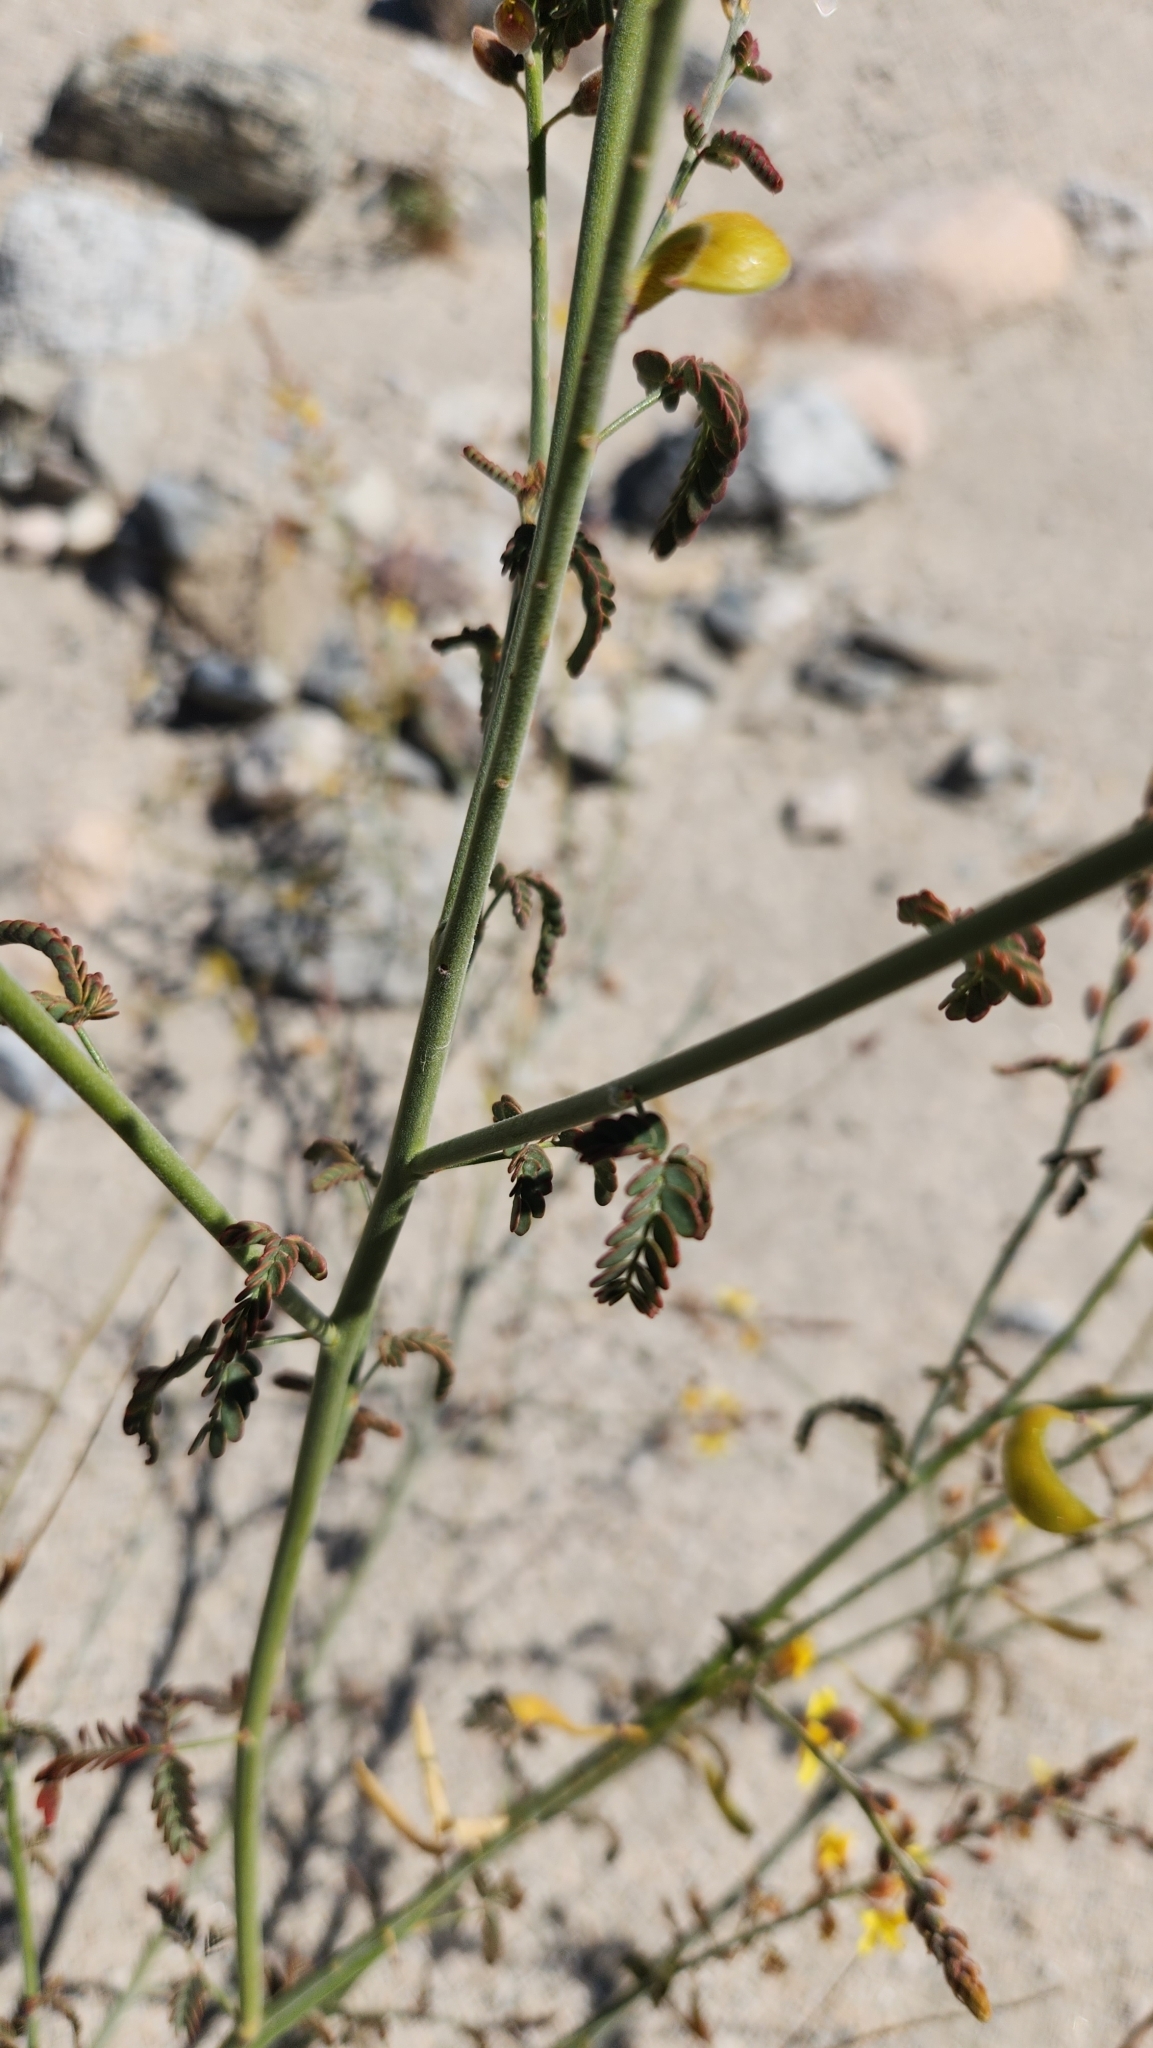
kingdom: Plantae
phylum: Tracheophyta
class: Magnoliopsida
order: Fabales
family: Fabaceae
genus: Hoffmannseggia
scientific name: Hoffmannseggia microphylla
